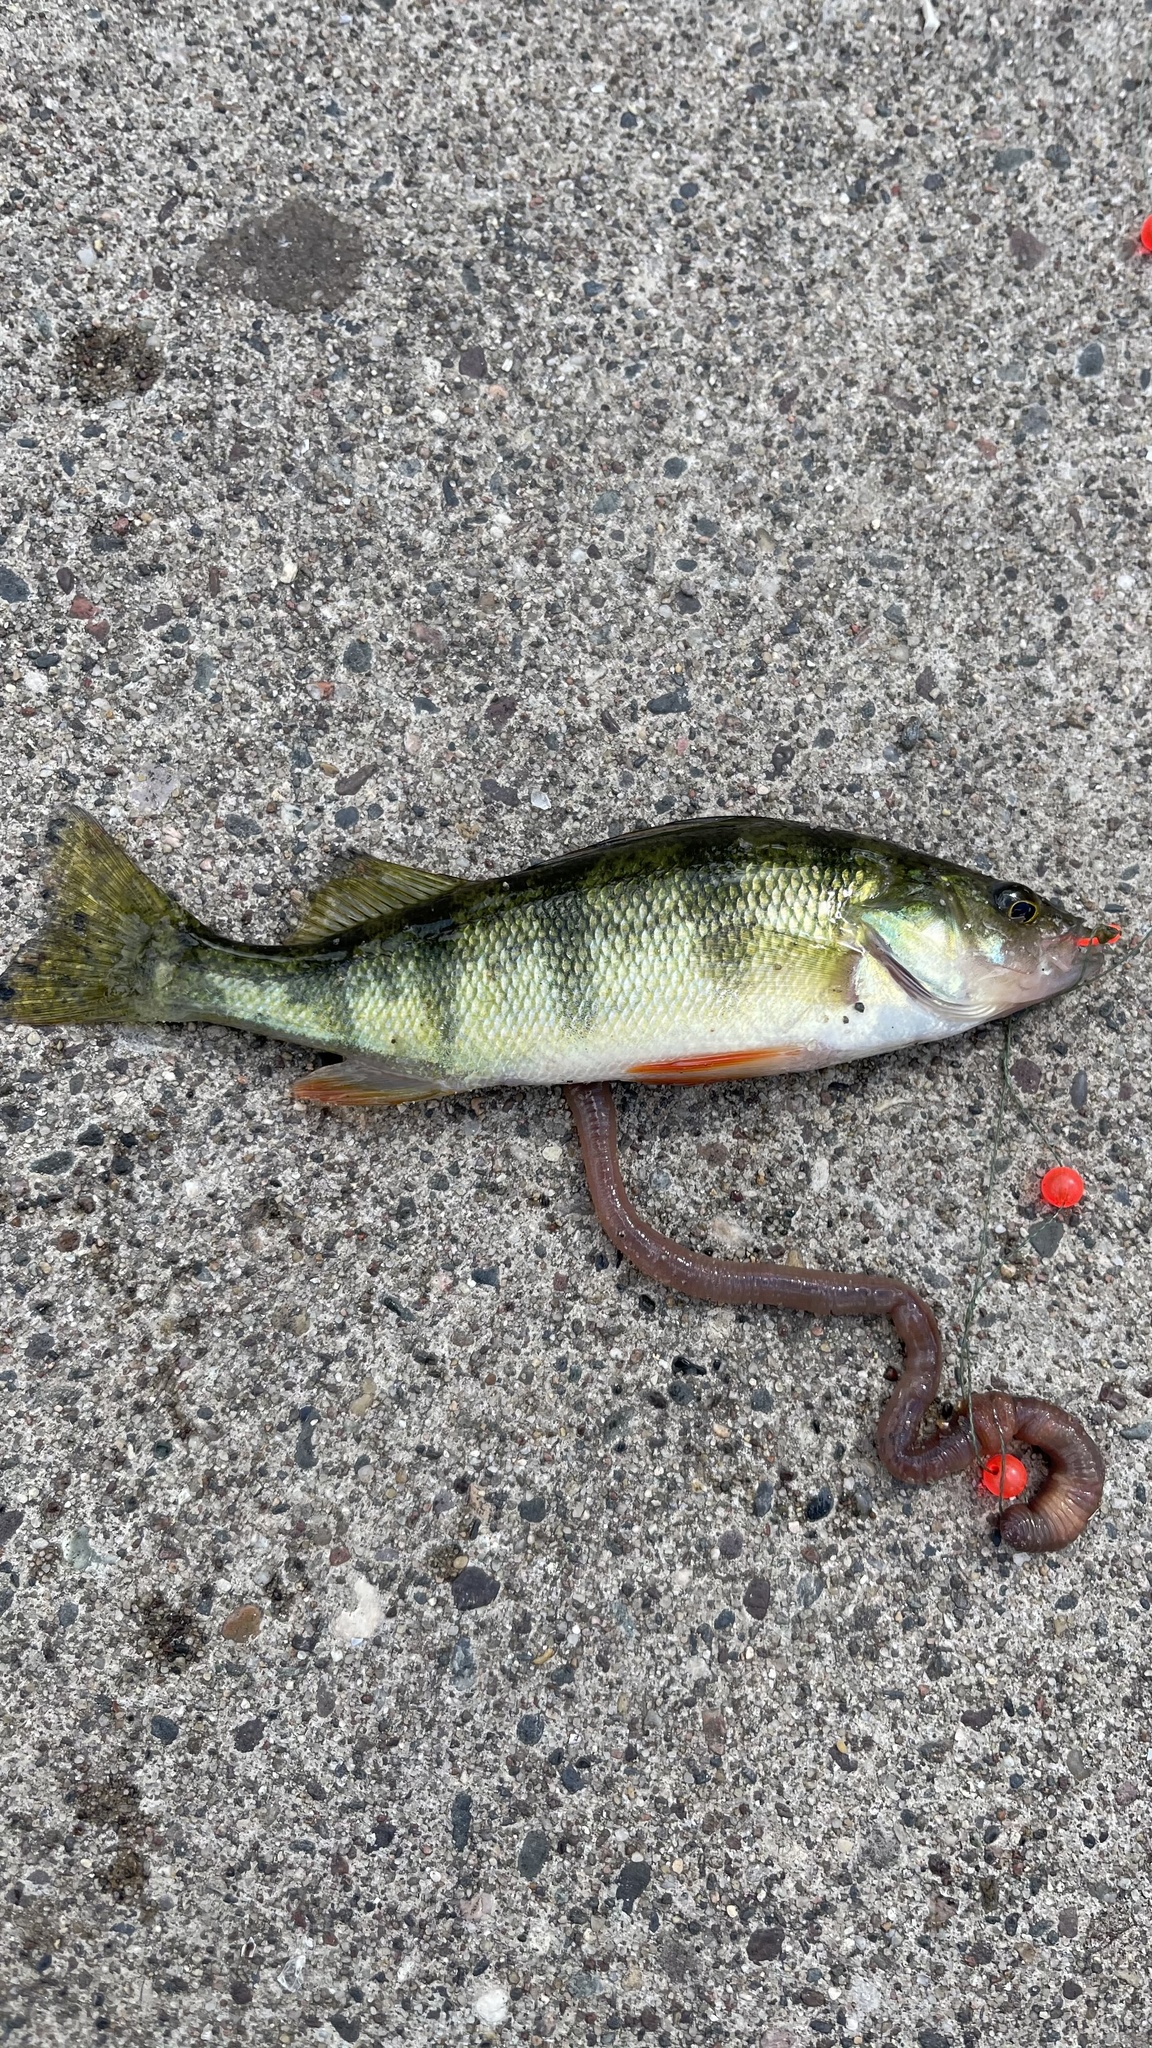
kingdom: Animalia
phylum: Chordata
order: Perciformes
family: Percidae
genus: Perca
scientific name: Perca flavescens
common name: Yellow perch
